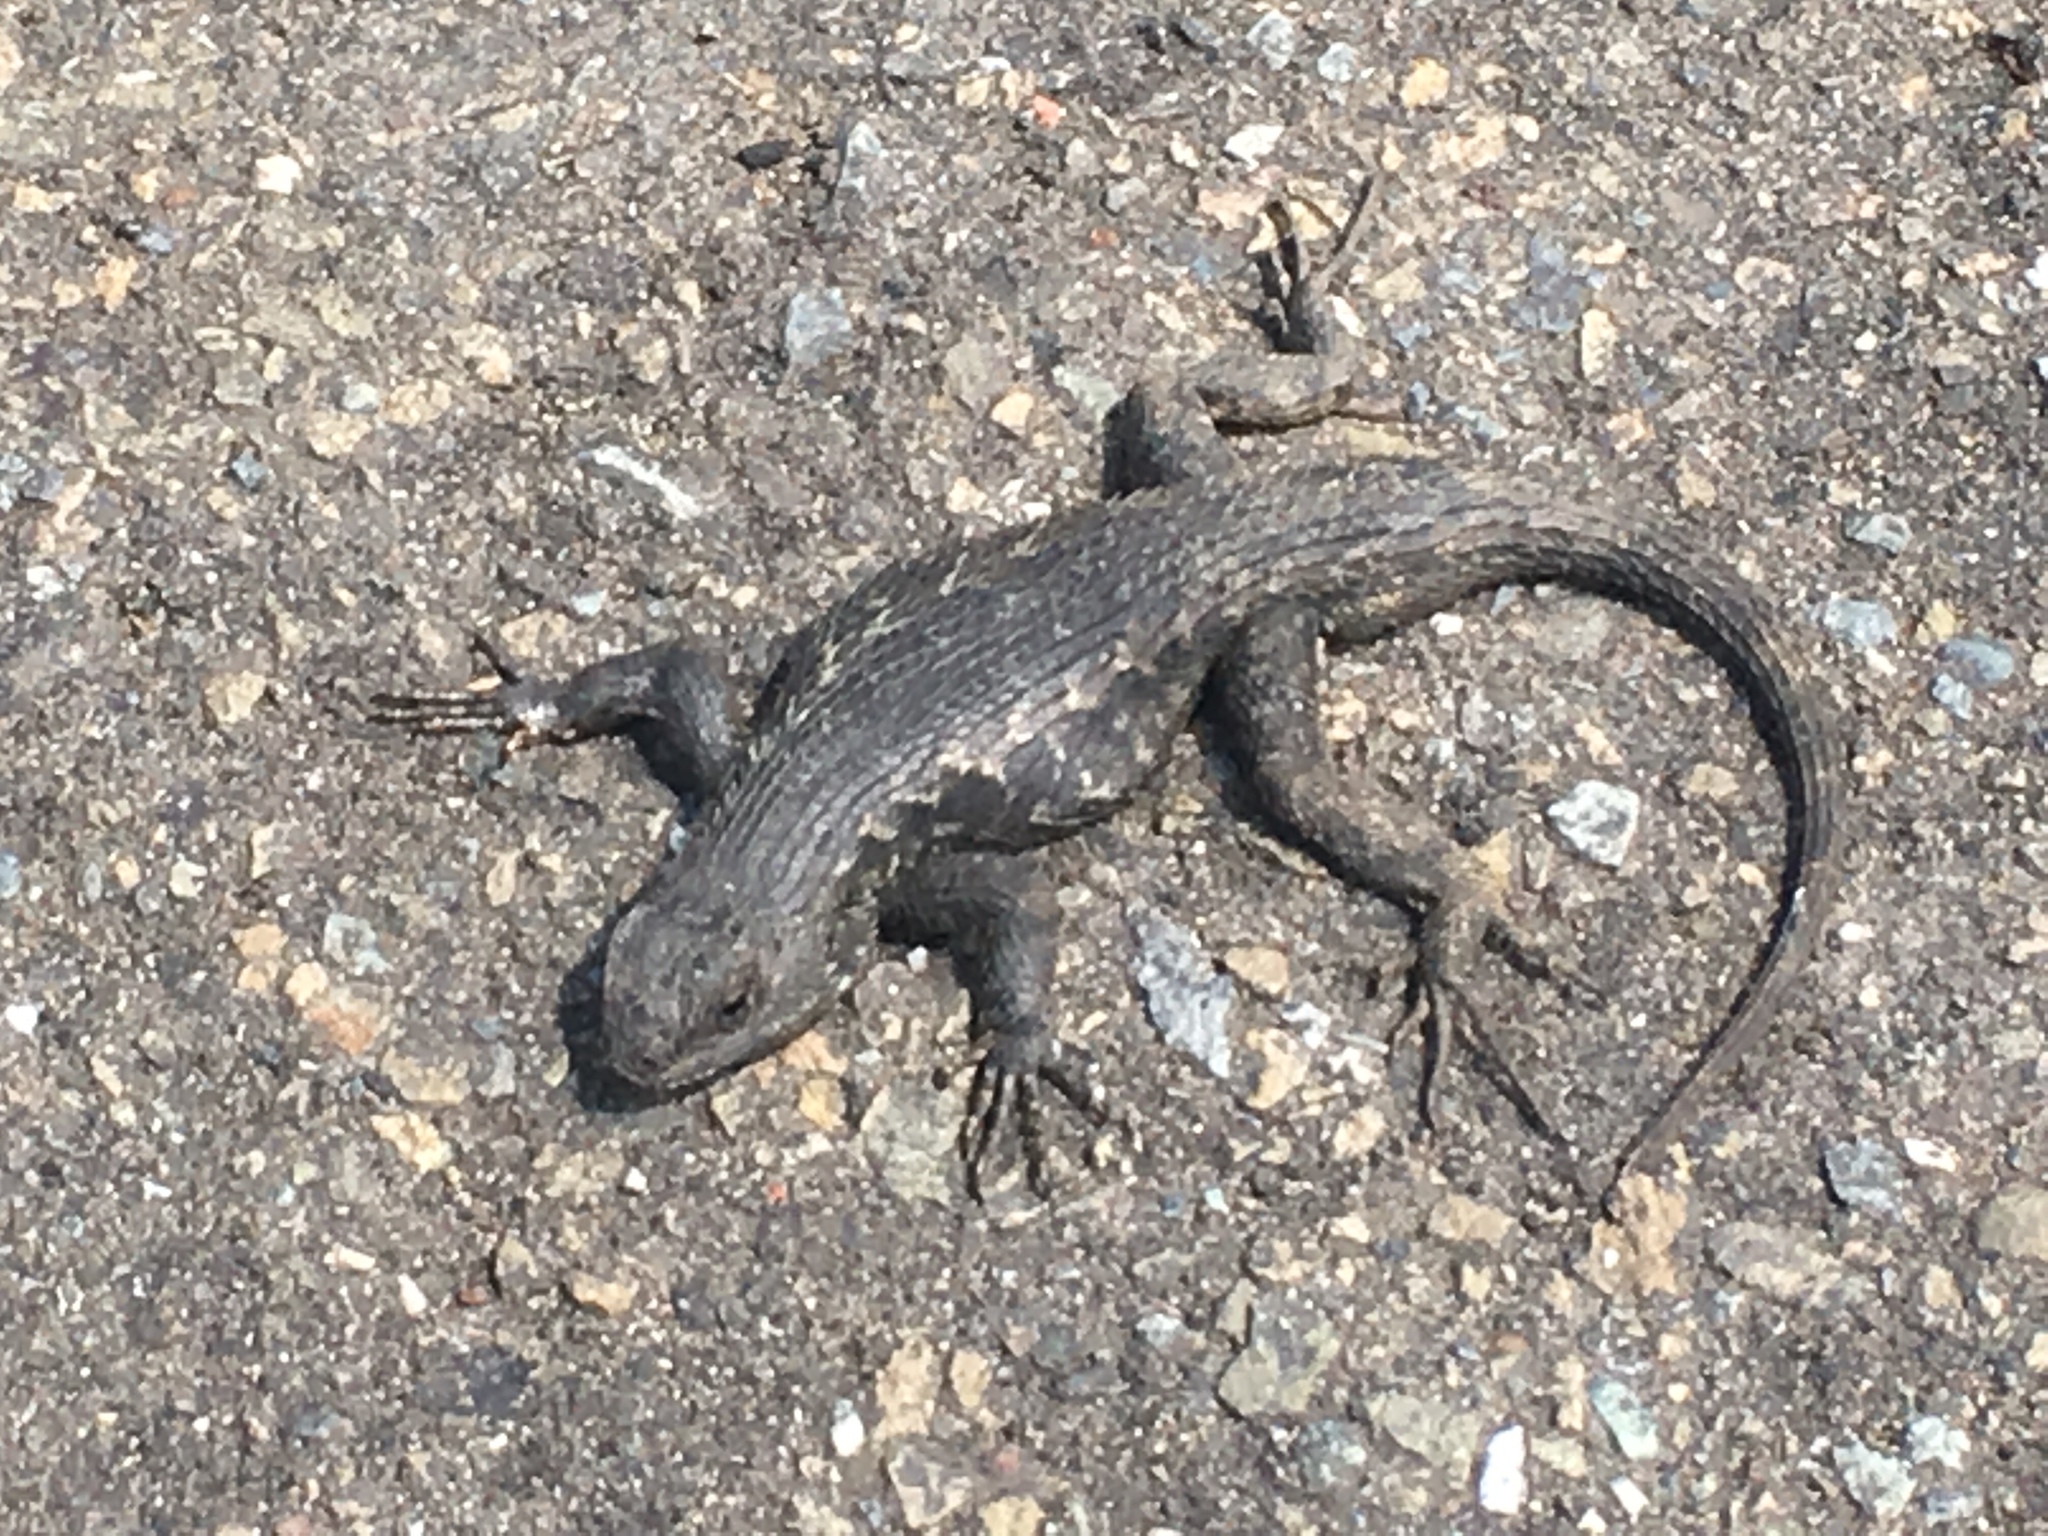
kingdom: Animalia
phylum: Chordata
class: Squamata
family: Phrynosomatidae
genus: Sceloporus
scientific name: Sceloporus occidentalis
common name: Western fence lizard
